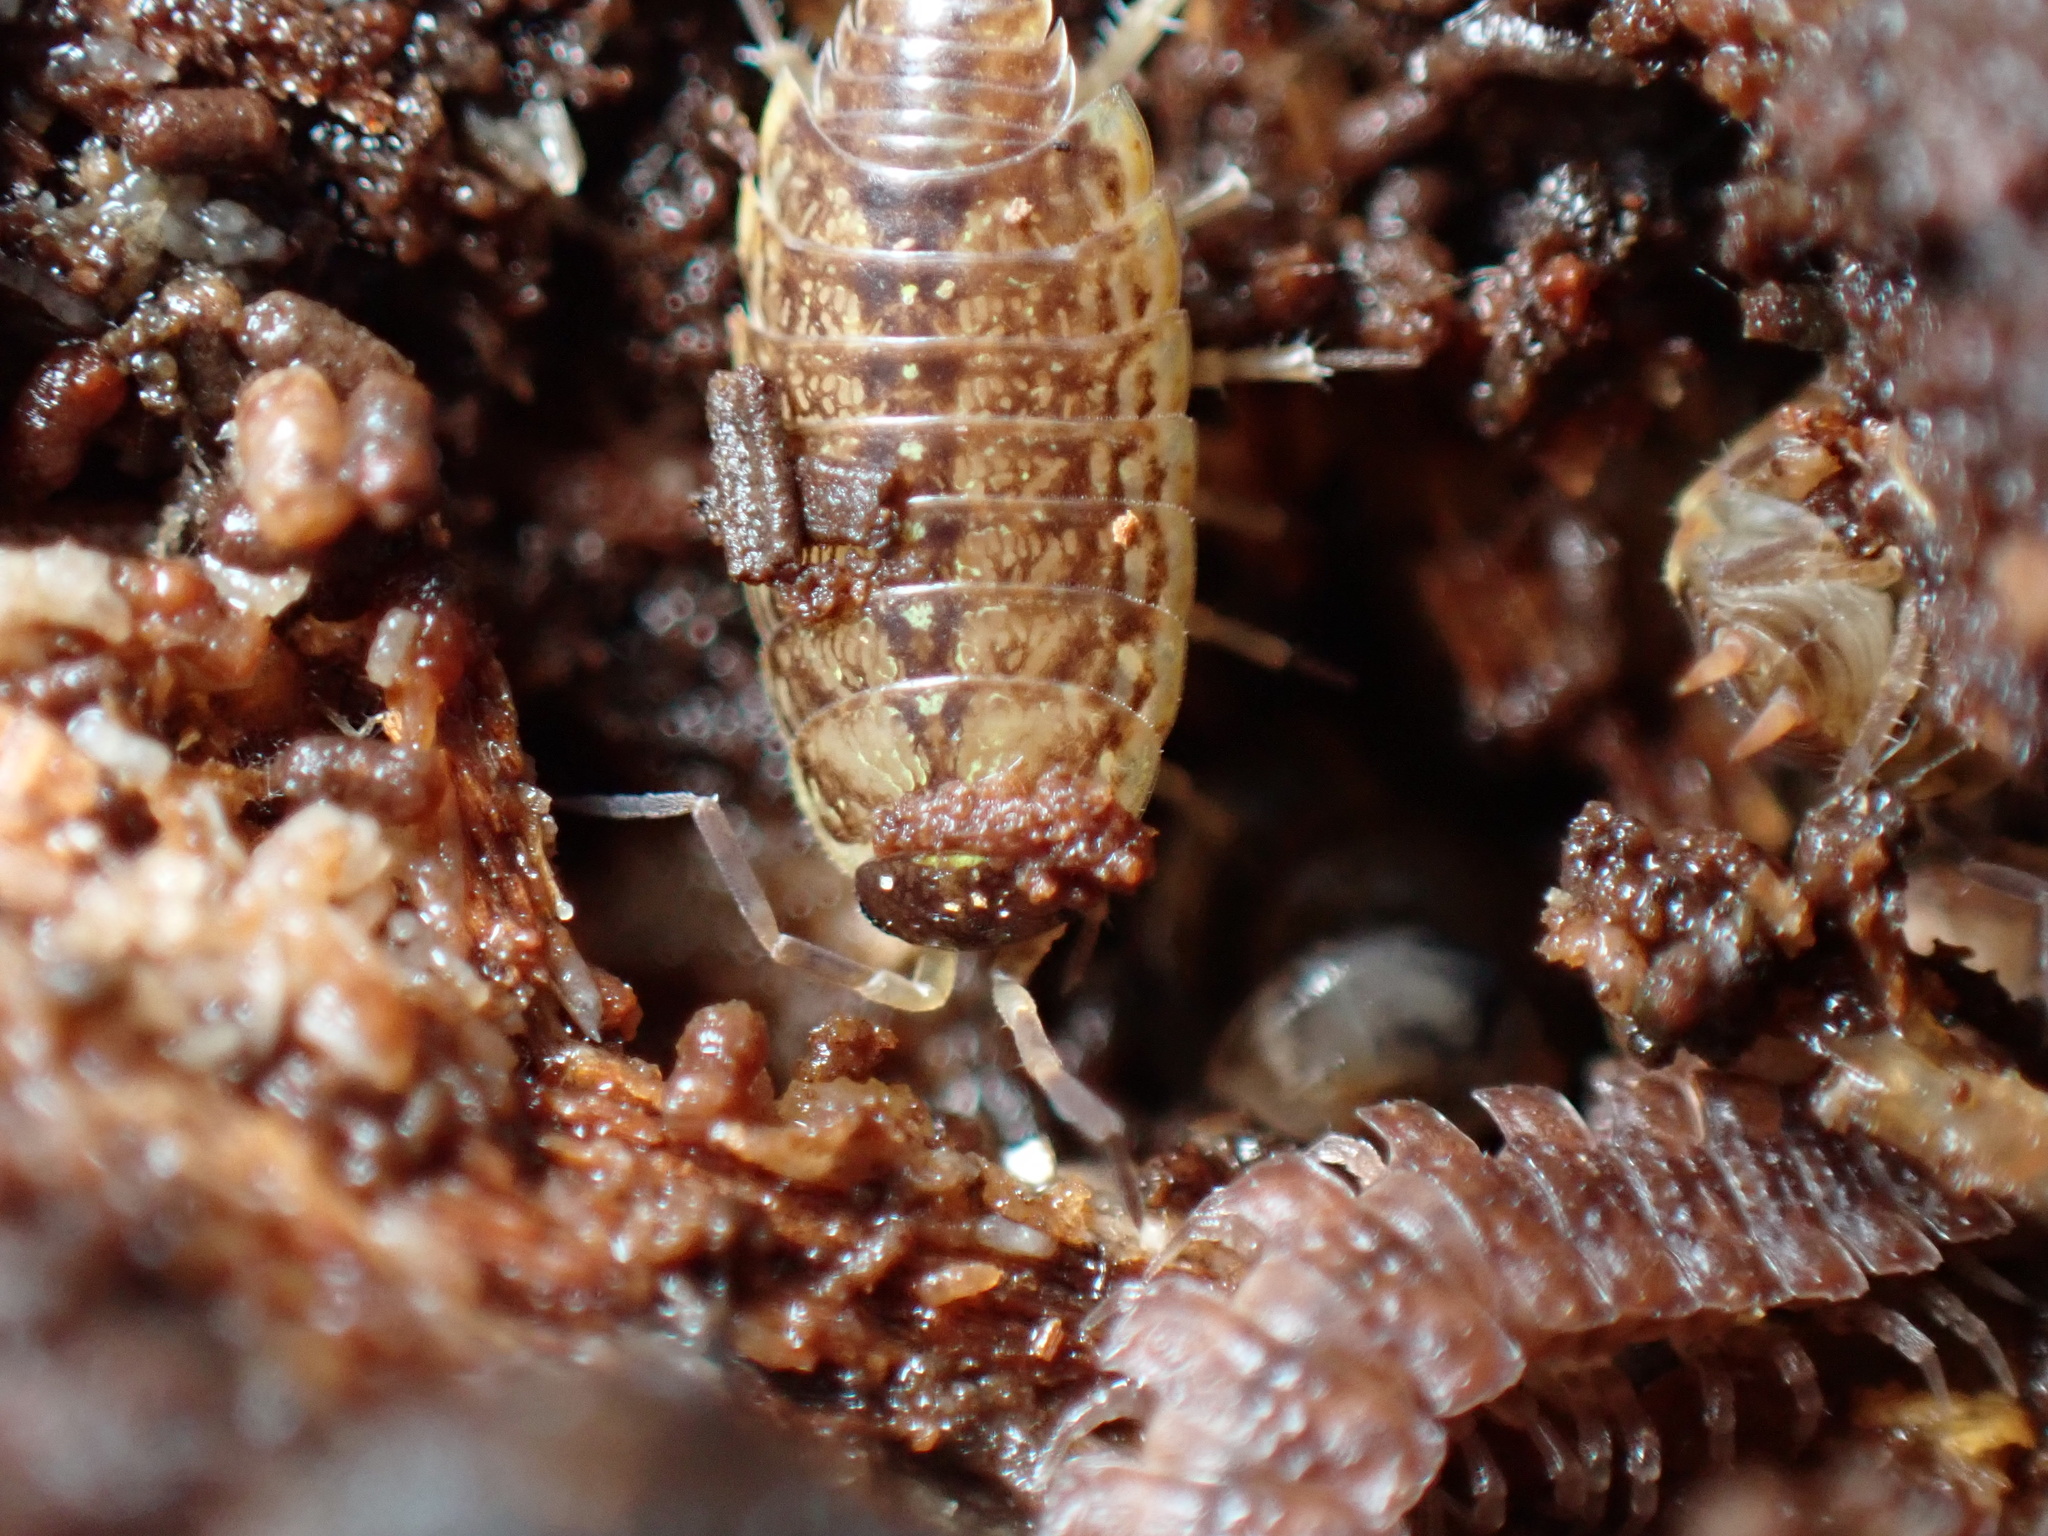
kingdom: Animalia
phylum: Arthropoda
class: Malacostraca
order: Isopoda
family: Philosciidae
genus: Philoscia
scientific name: Philoscia muscorum
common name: Common striped woodlouse
